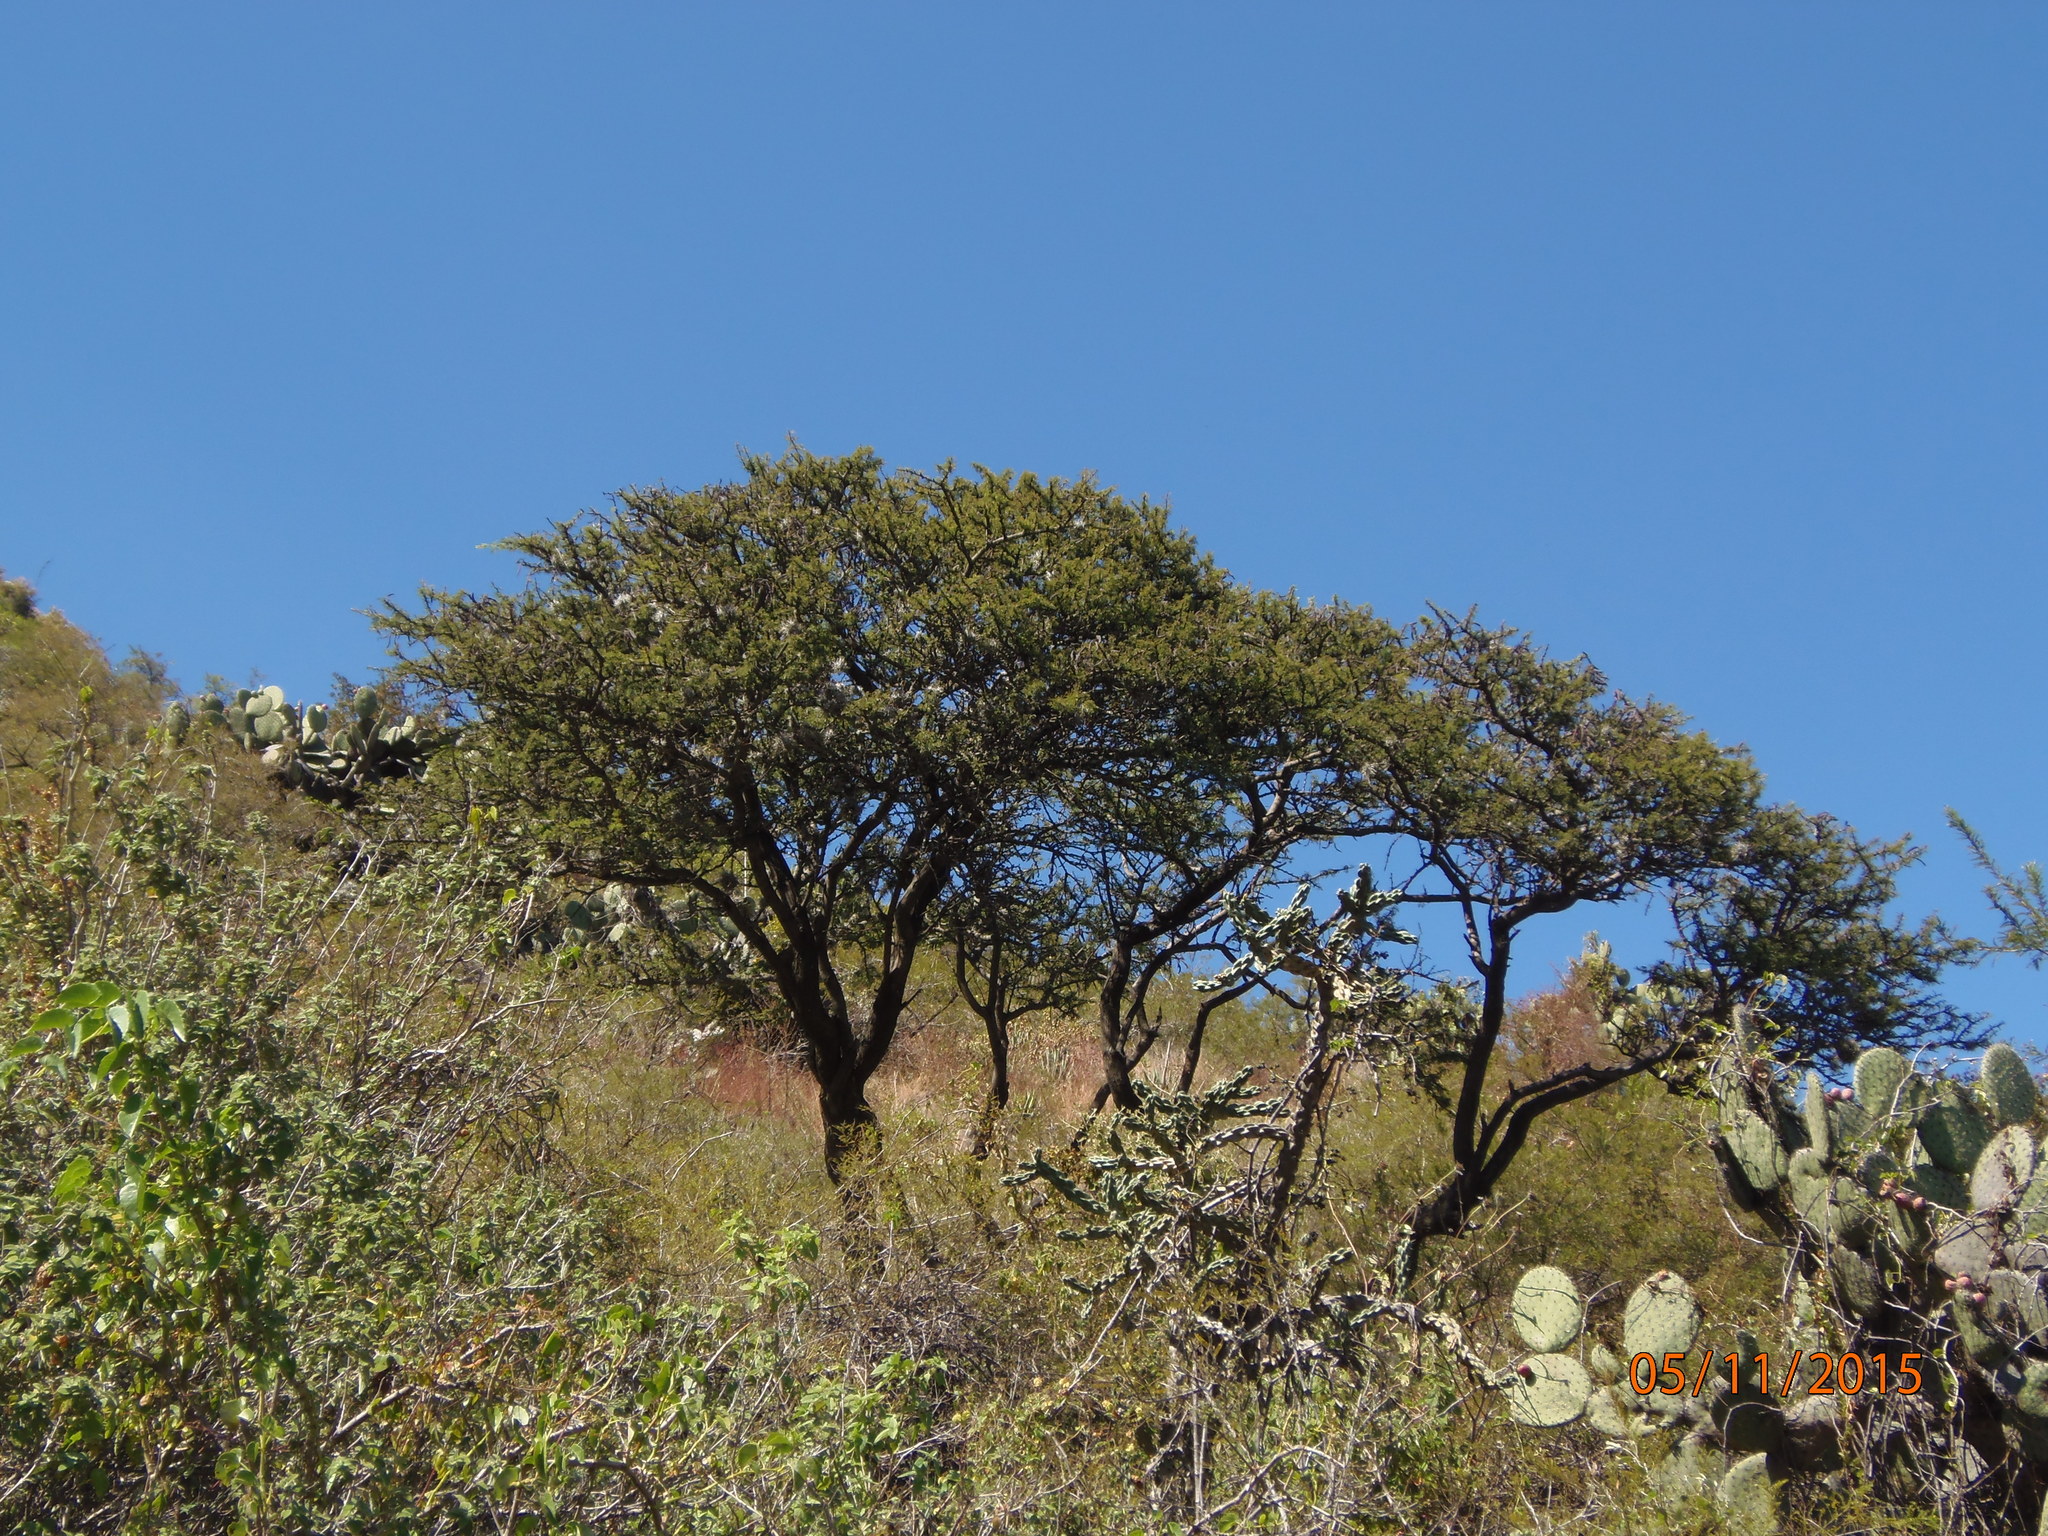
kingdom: Plantae
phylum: Tracheophyta
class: Magnoliopsida
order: Fabales
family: Fabaceae
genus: Vachellia
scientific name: Vachellia schaffneri
